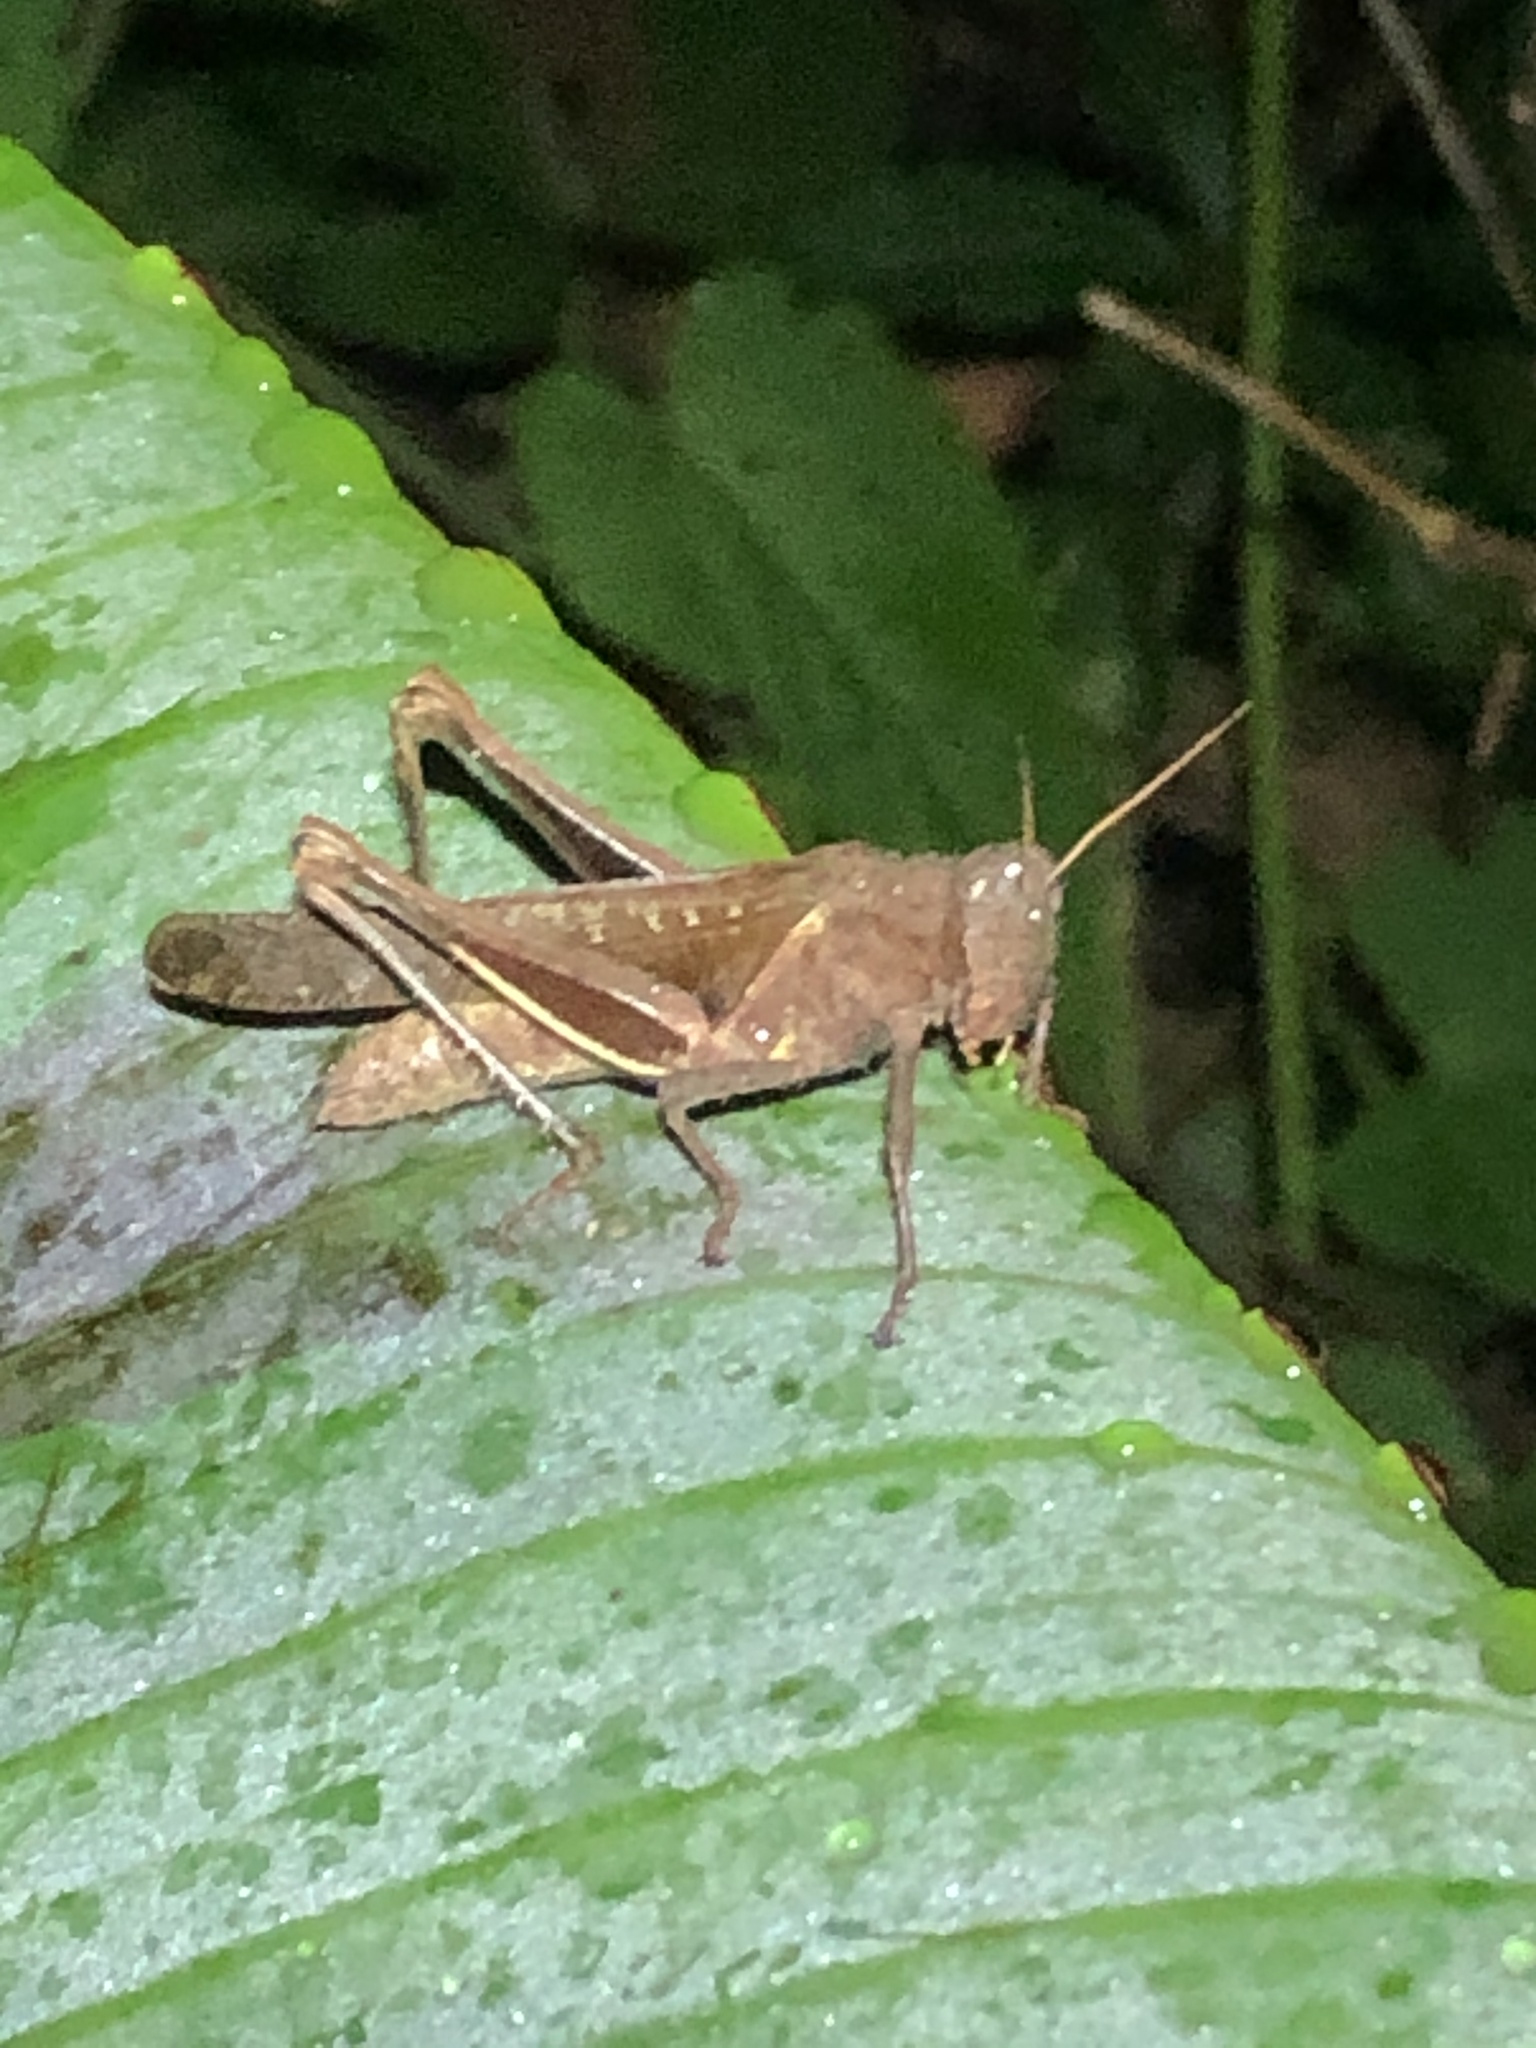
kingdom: Animalia
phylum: Arthropoda
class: Insecta
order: Orthoptera
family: Acrididae
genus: Abracris
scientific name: Abracris flavolineata
